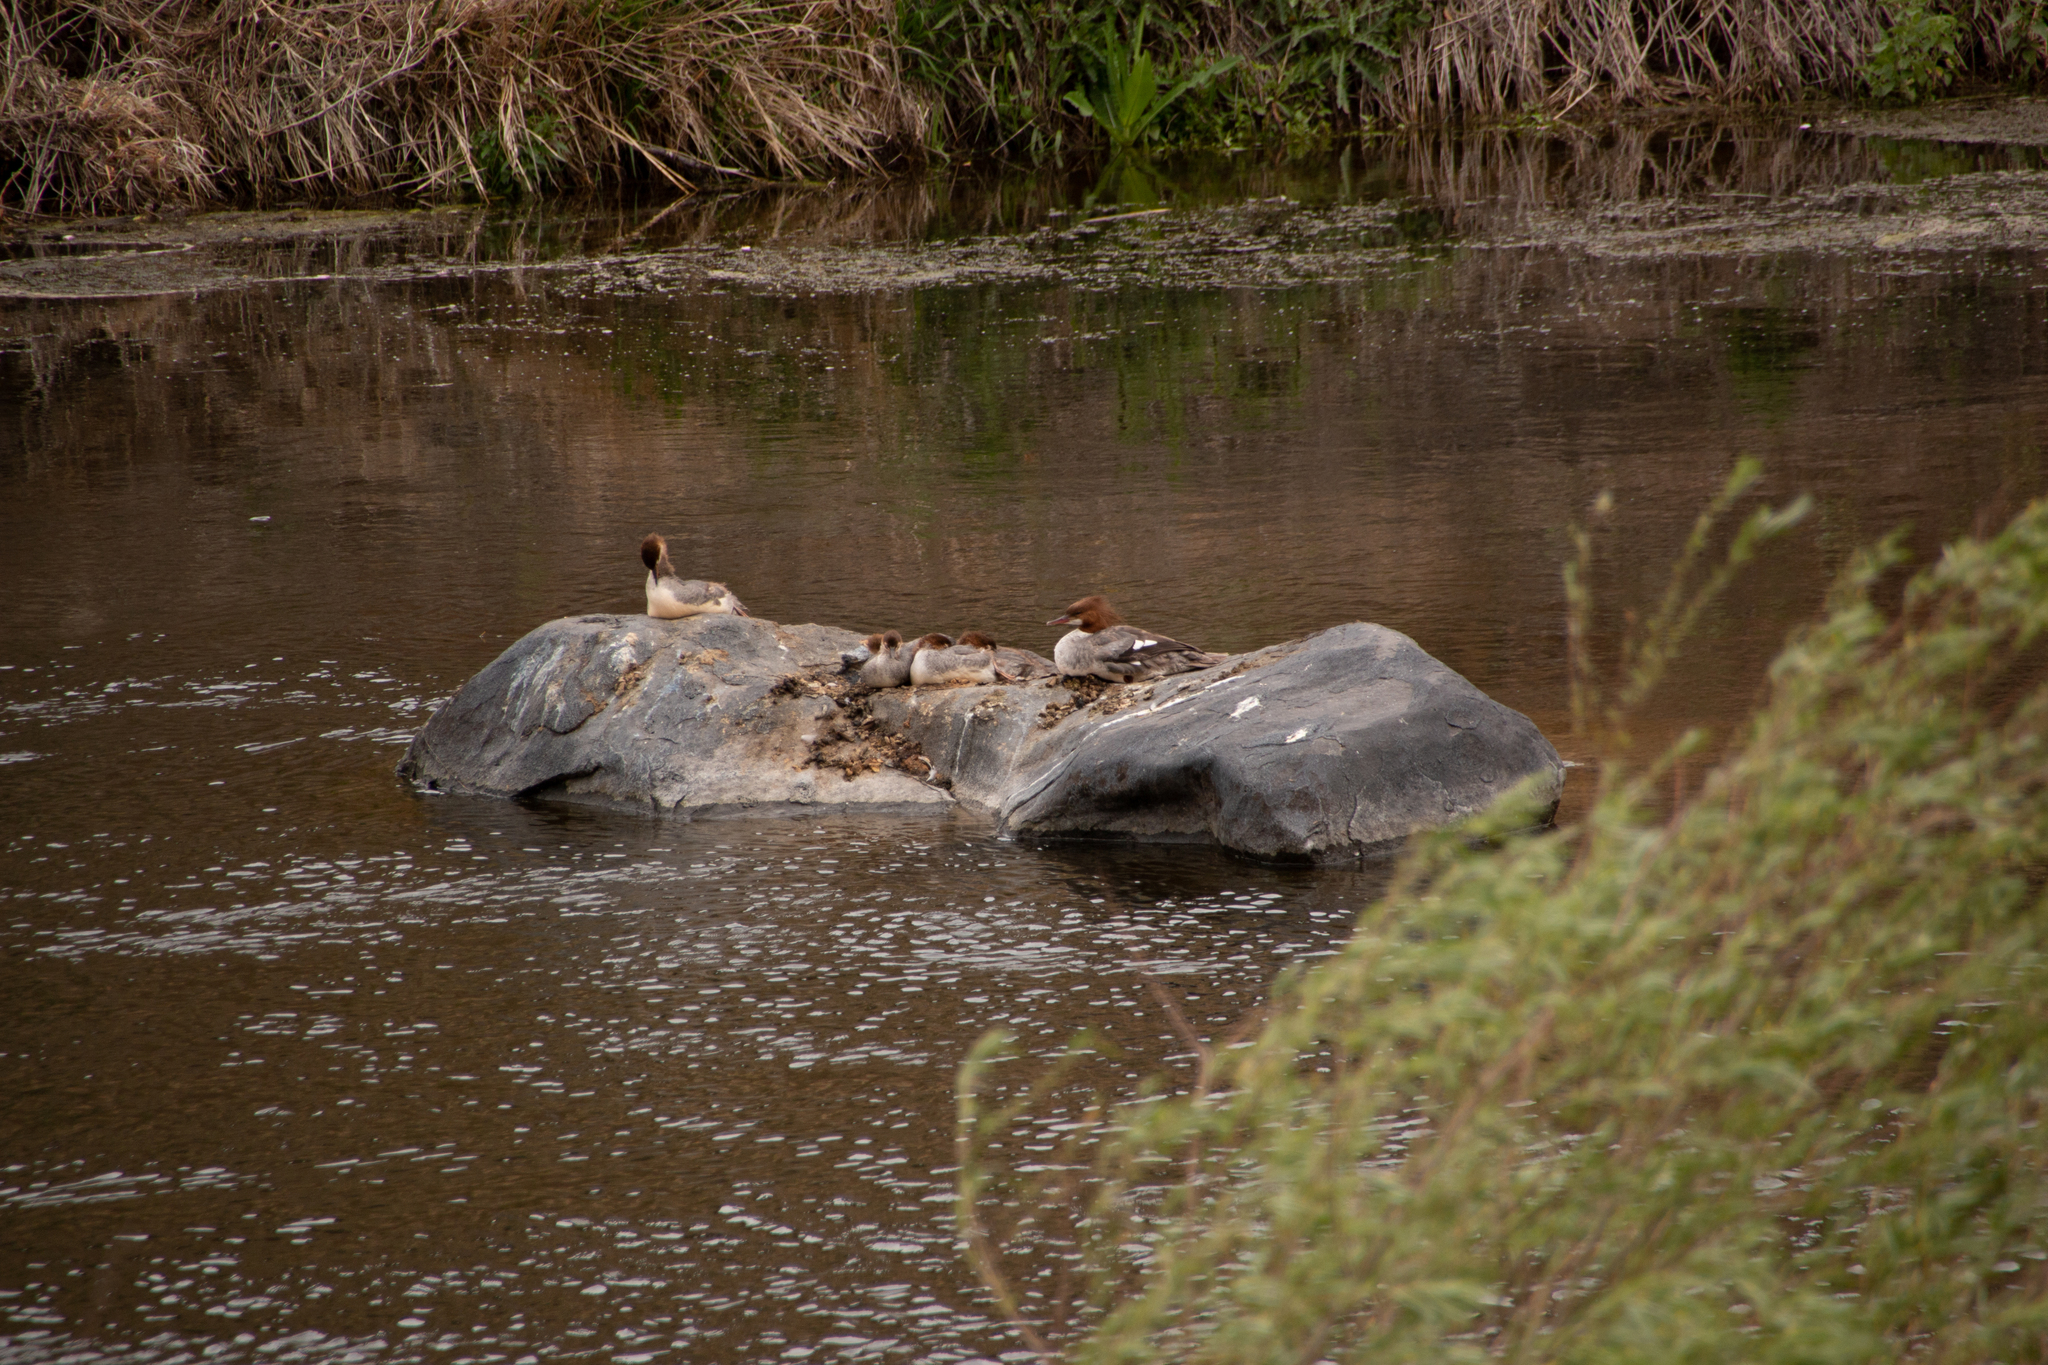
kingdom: Animalia
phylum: Chordata
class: Aves
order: Anseriformes
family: Anatidae
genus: Mergus
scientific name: Mergus merganser
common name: Common merganser
